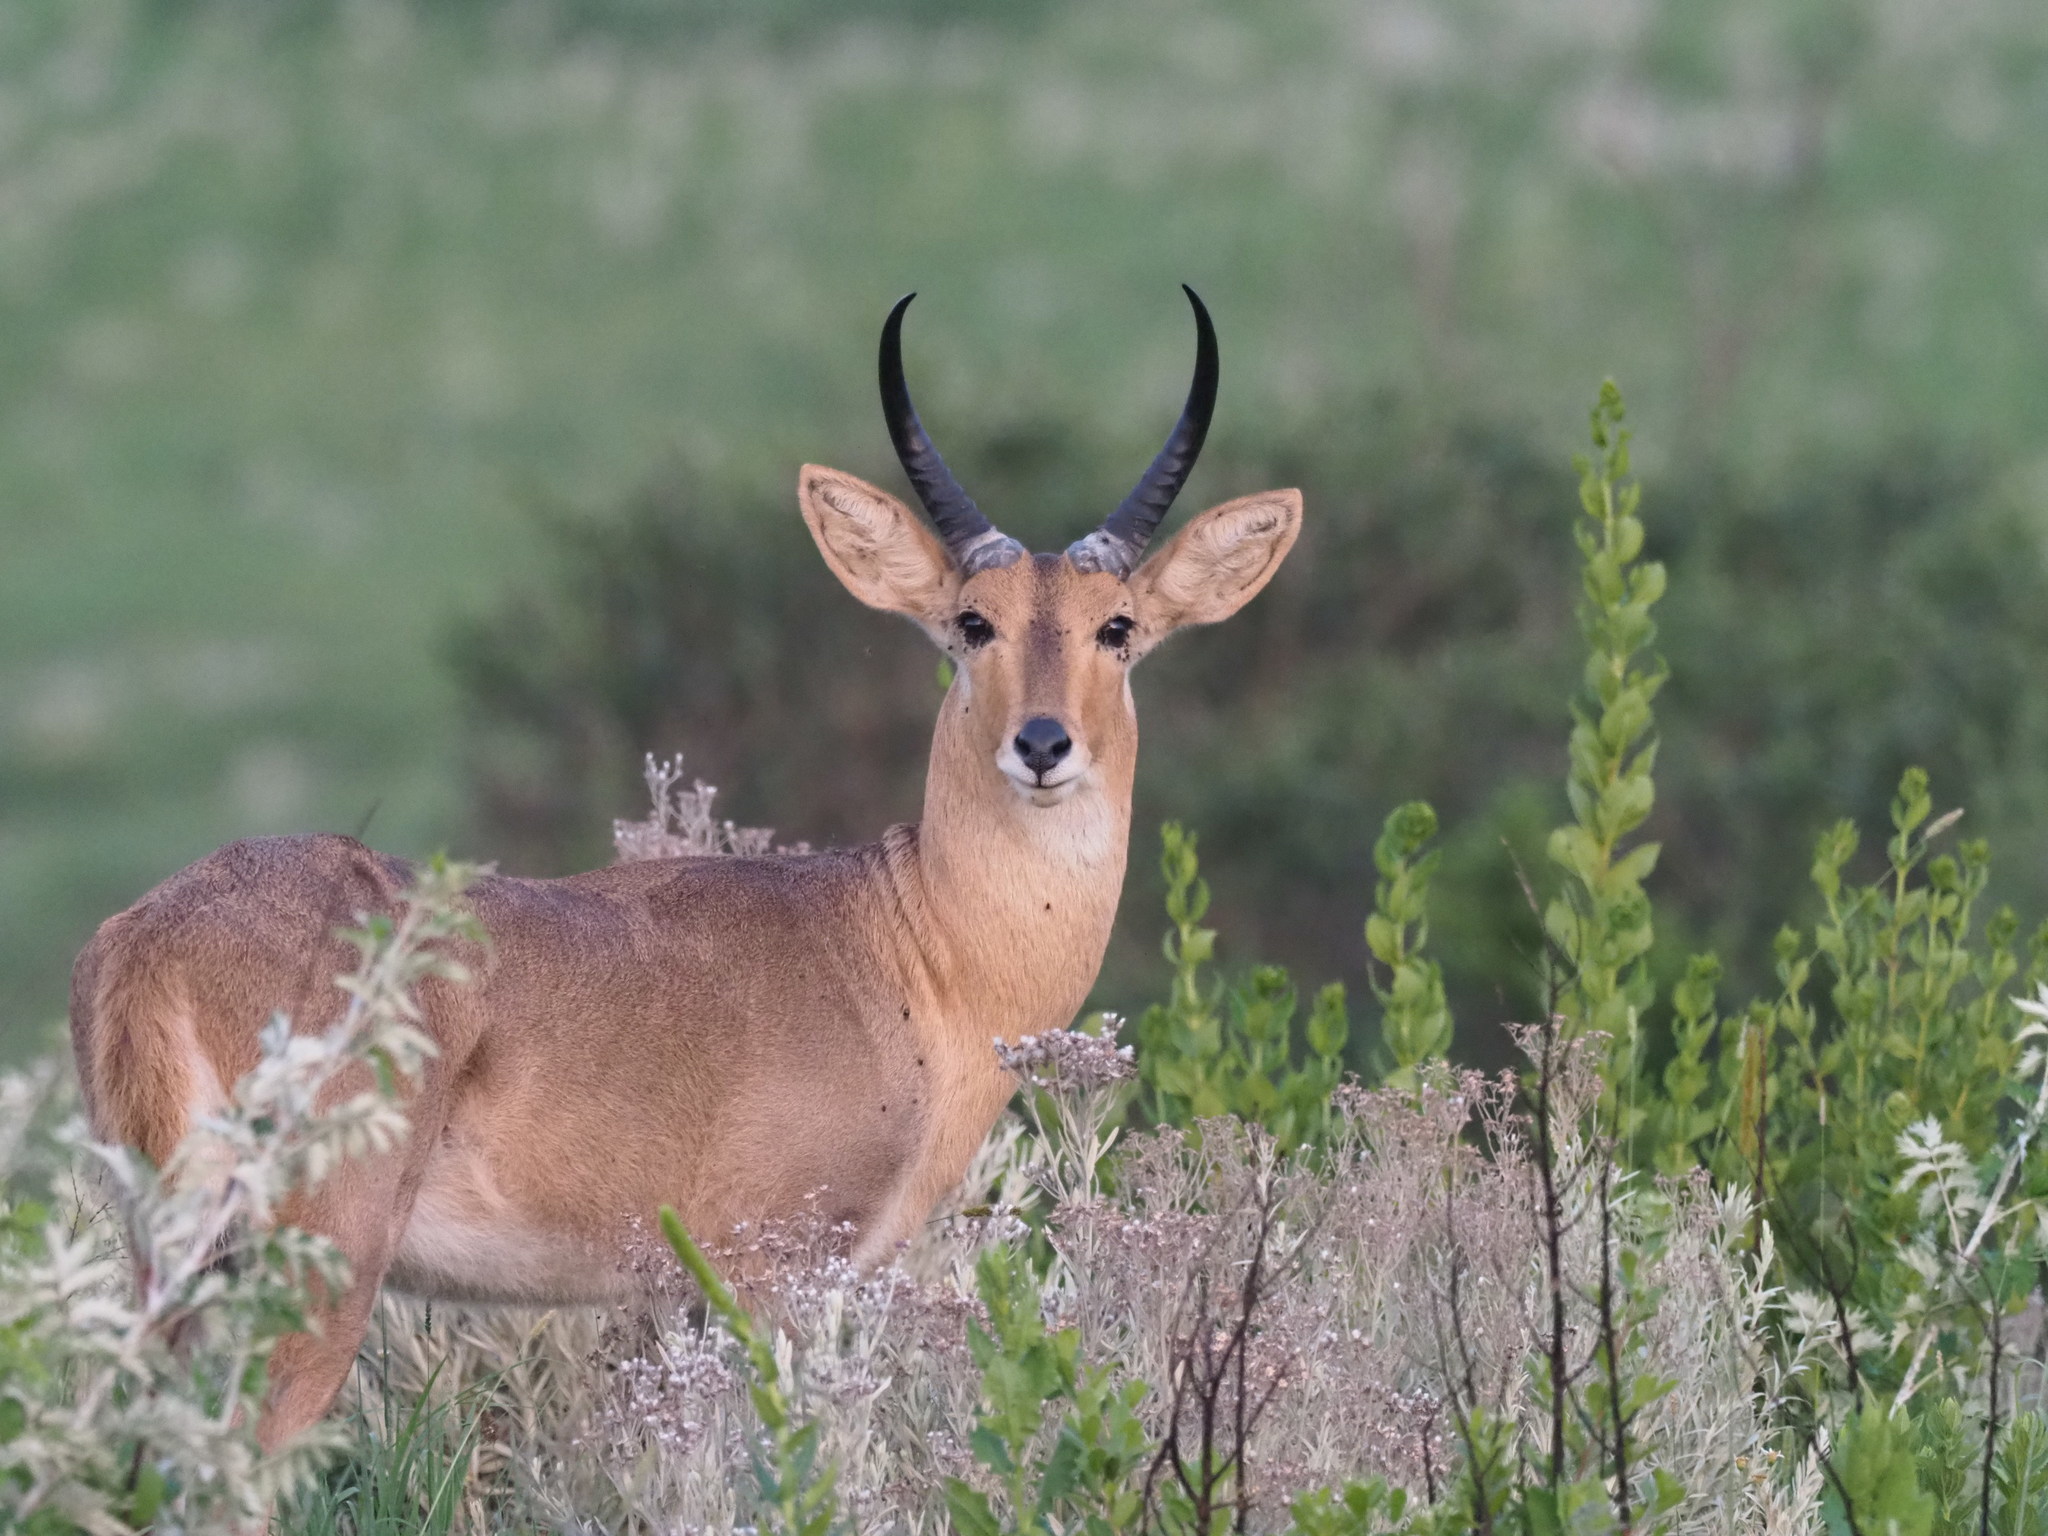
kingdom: Animalia
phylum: Chordata
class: Mammalia
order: Artiodactyla
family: Bovidae
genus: Redunca
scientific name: Redunca arundinum
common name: Southern reedbuck
